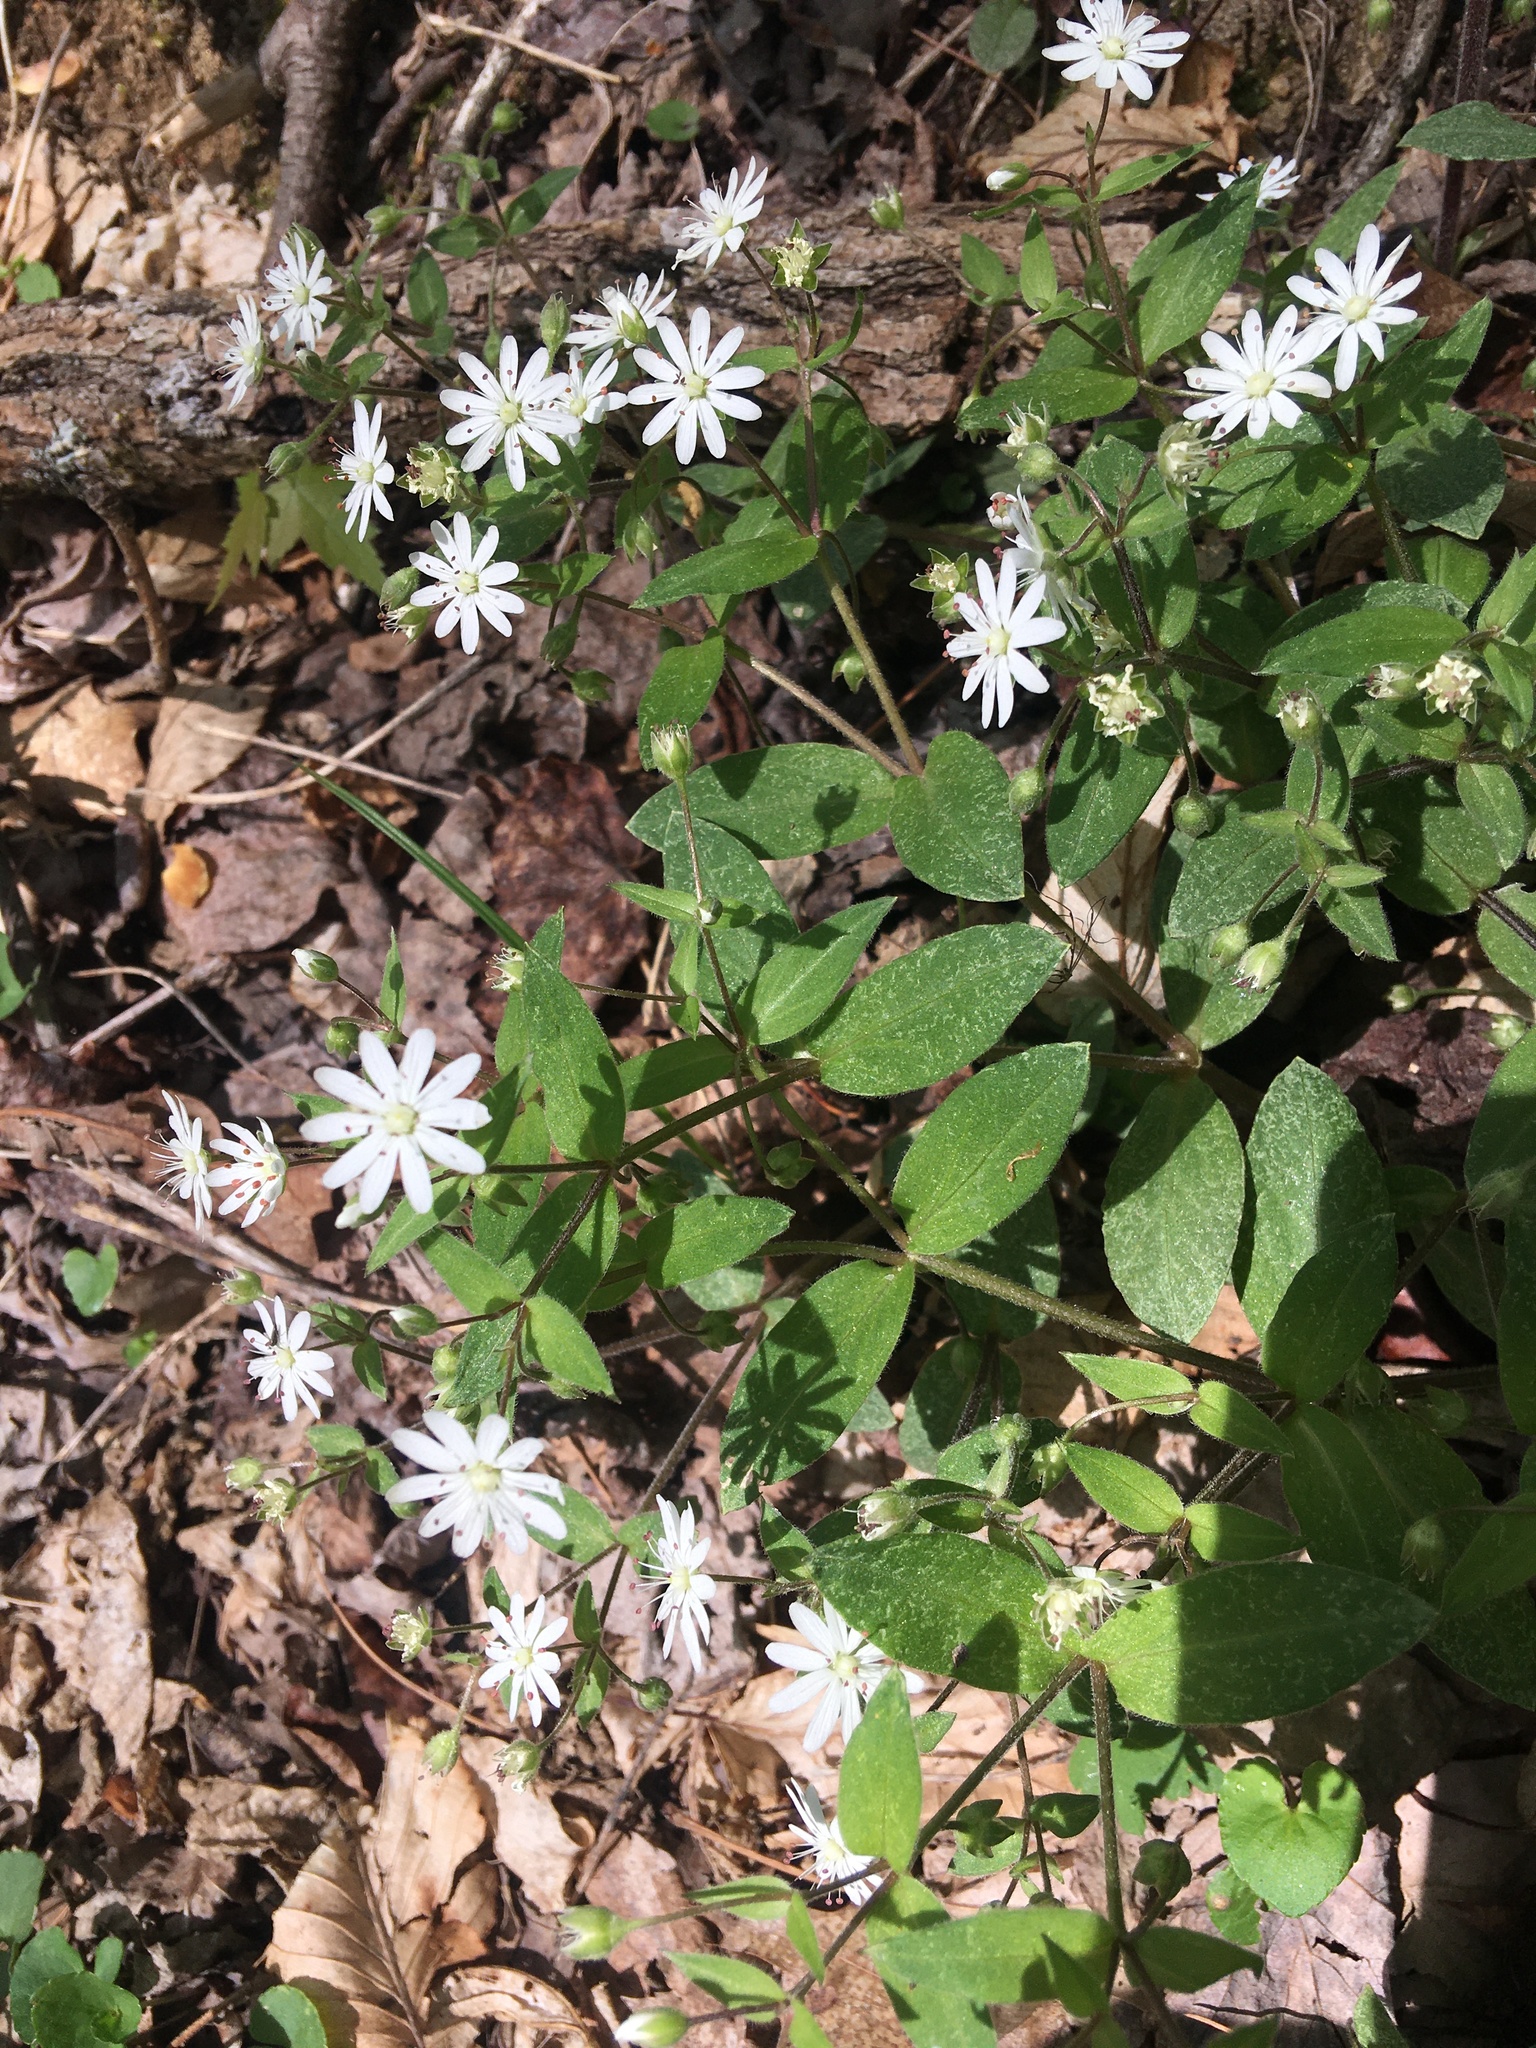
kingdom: Plantae
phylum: Tracheophyta
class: Magnoliopsida
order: Caryophyllales
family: Caryophyllaceae
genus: Stellaria
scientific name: Stellaria pubera
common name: Star chickweed
